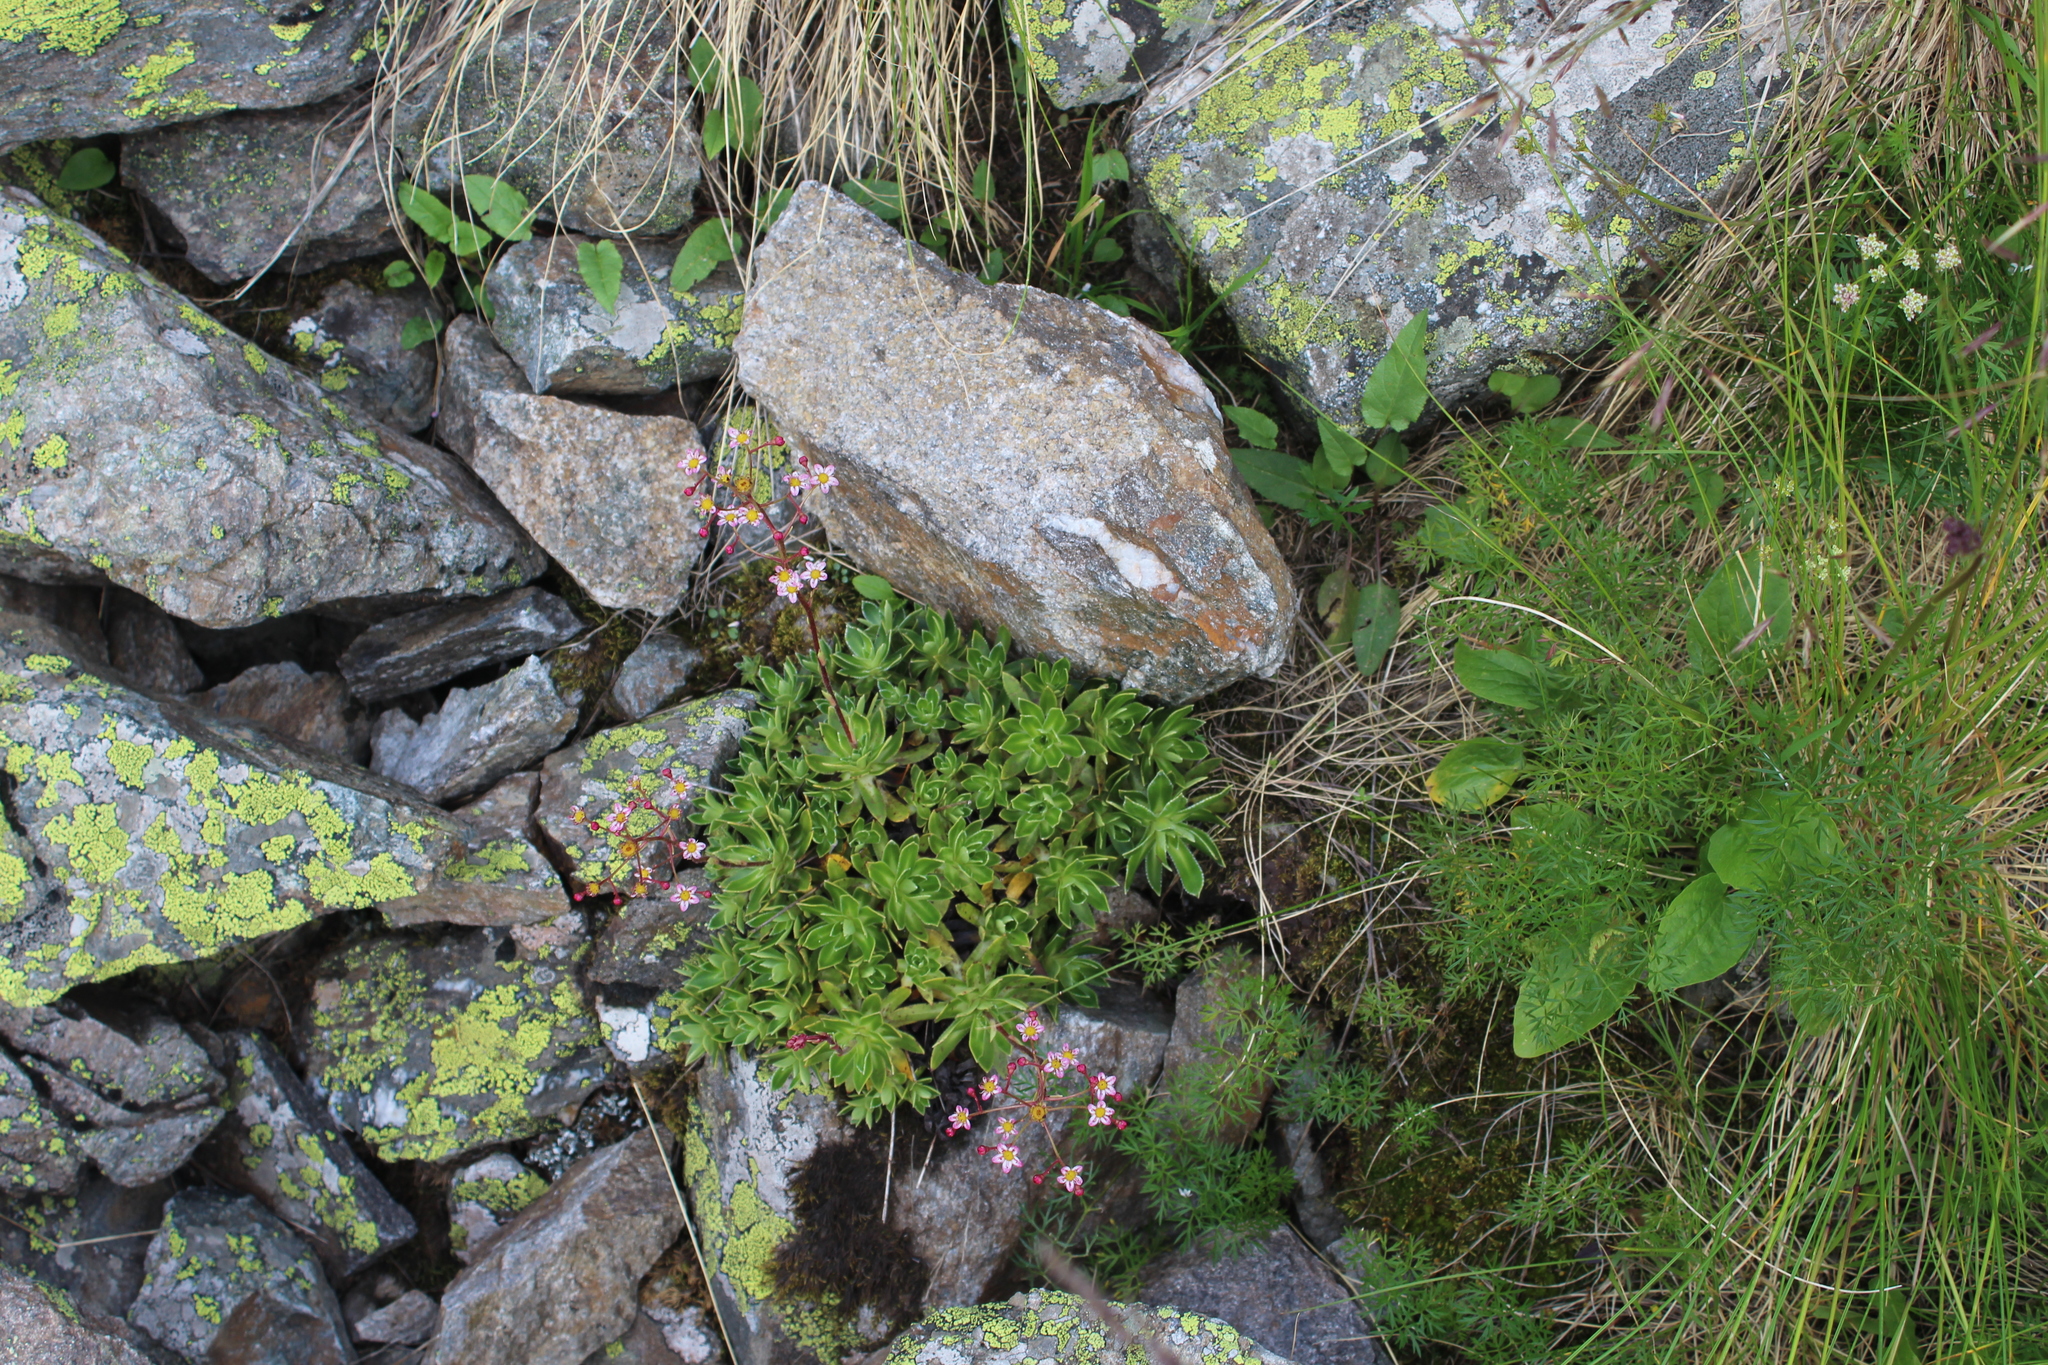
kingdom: Plantae
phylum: Tracheophyta
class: Magnoliopsida
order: Saxifragales
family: Saxifragaceae
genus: Saxifraga
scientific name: Saxifraga kolenatiana
